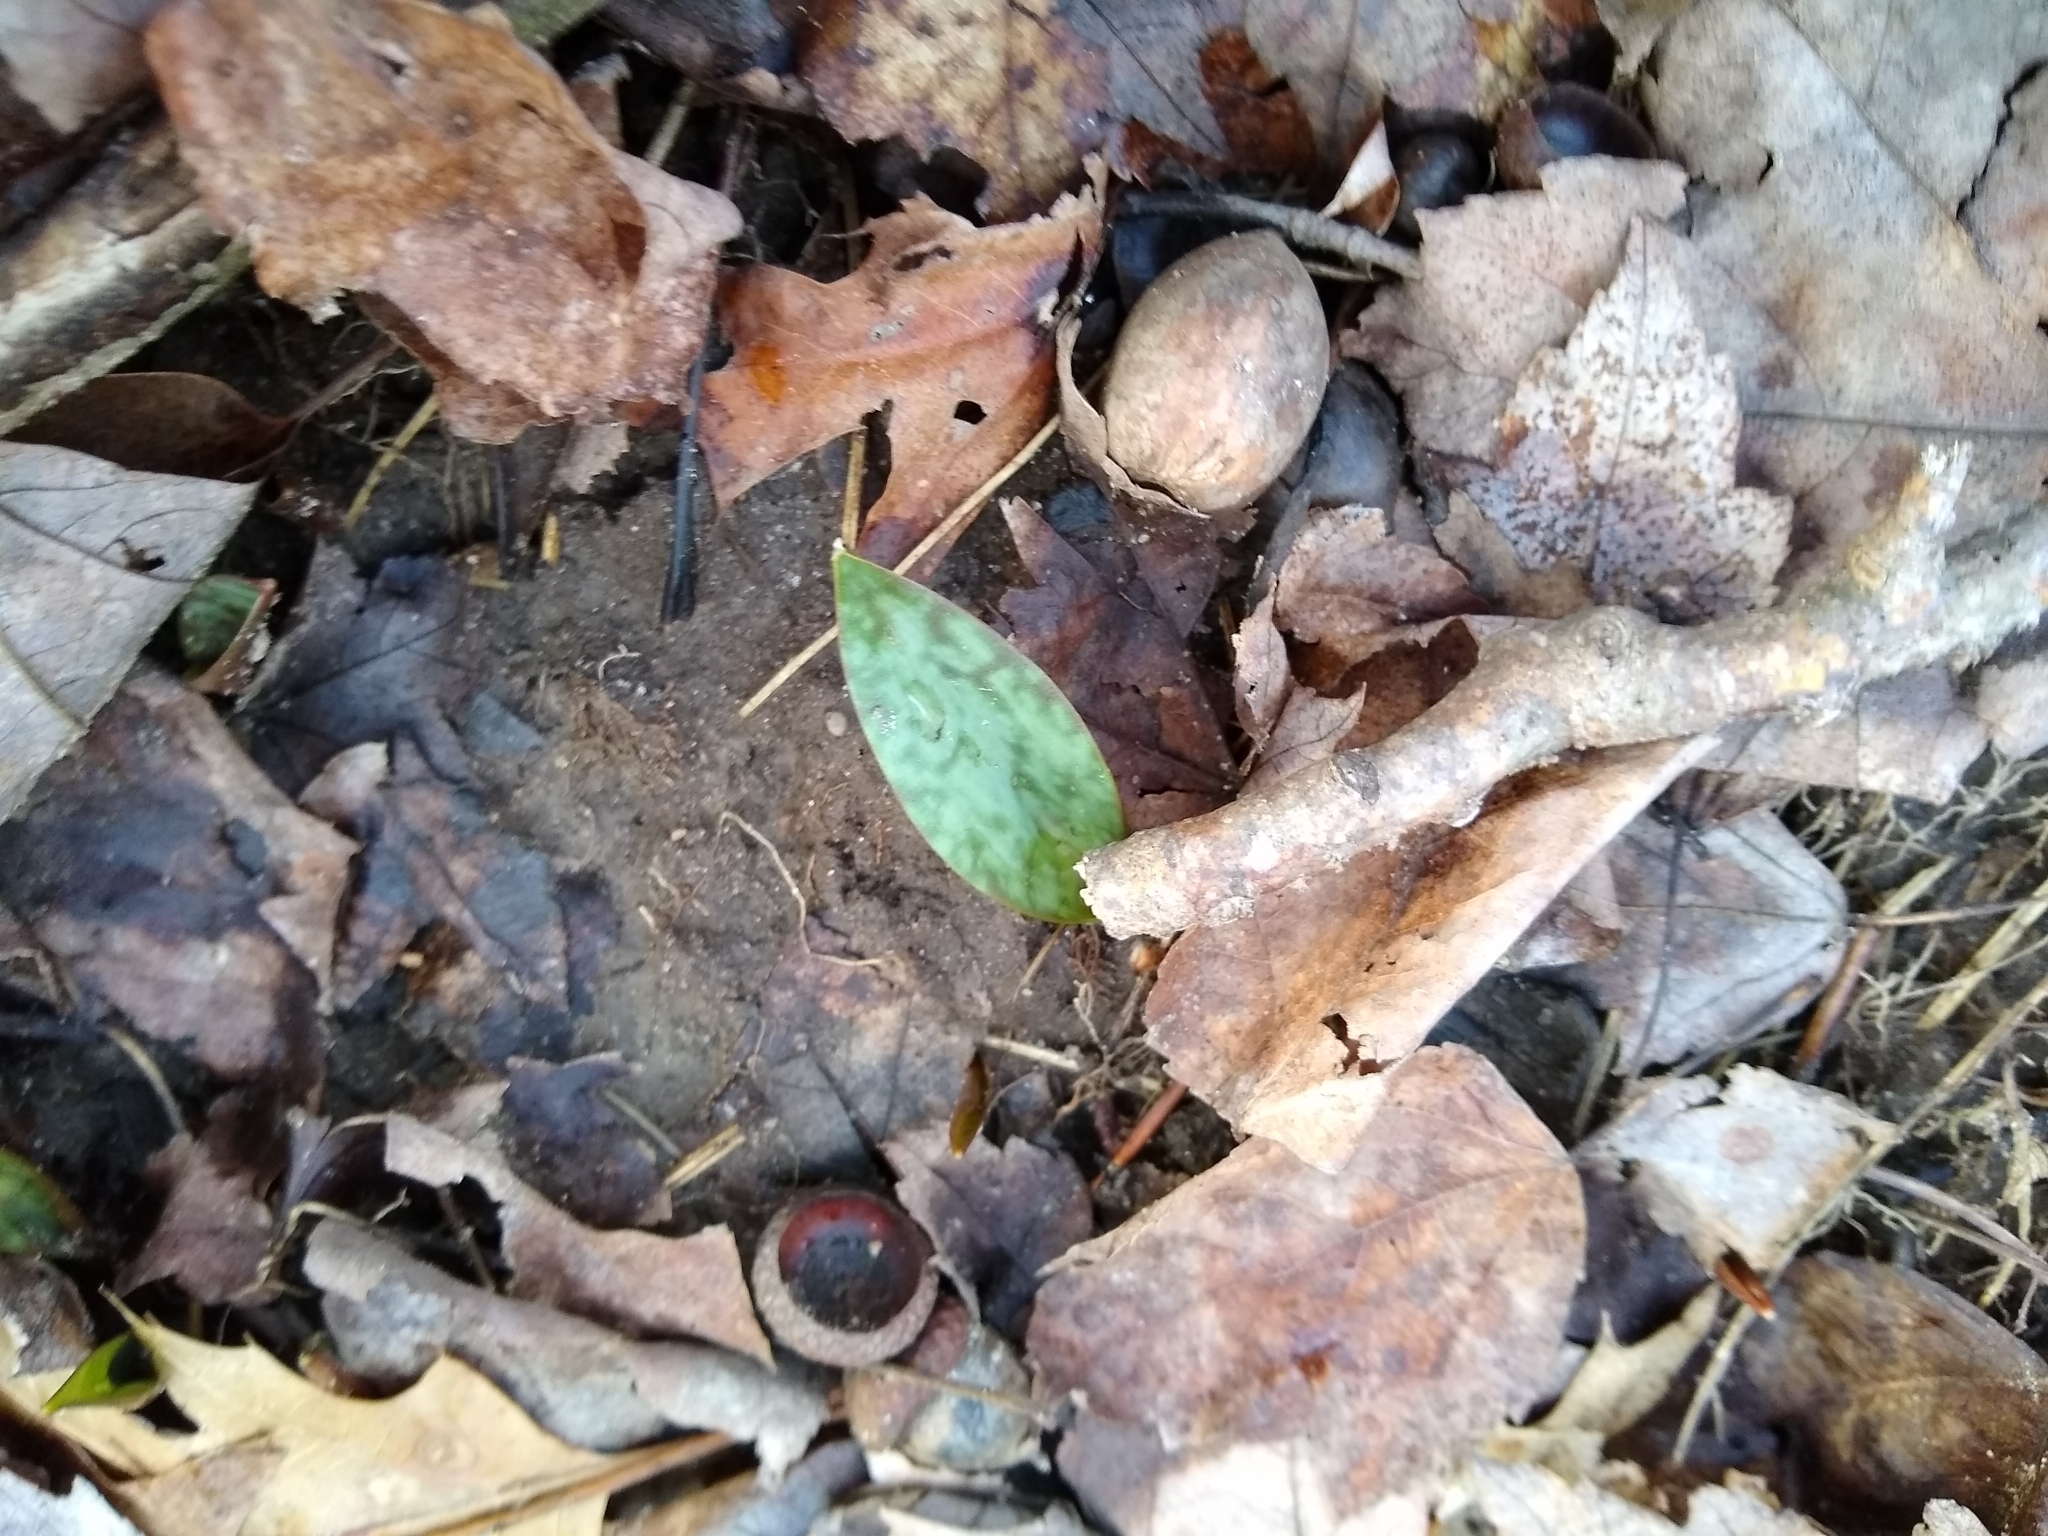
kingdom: Plantae
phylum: Tracheophyta
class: Liliopsida
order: Liliales
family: Liliaceae
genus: Erythronium
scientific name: Erythronium americanum
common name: Yellow adder's-tongue
